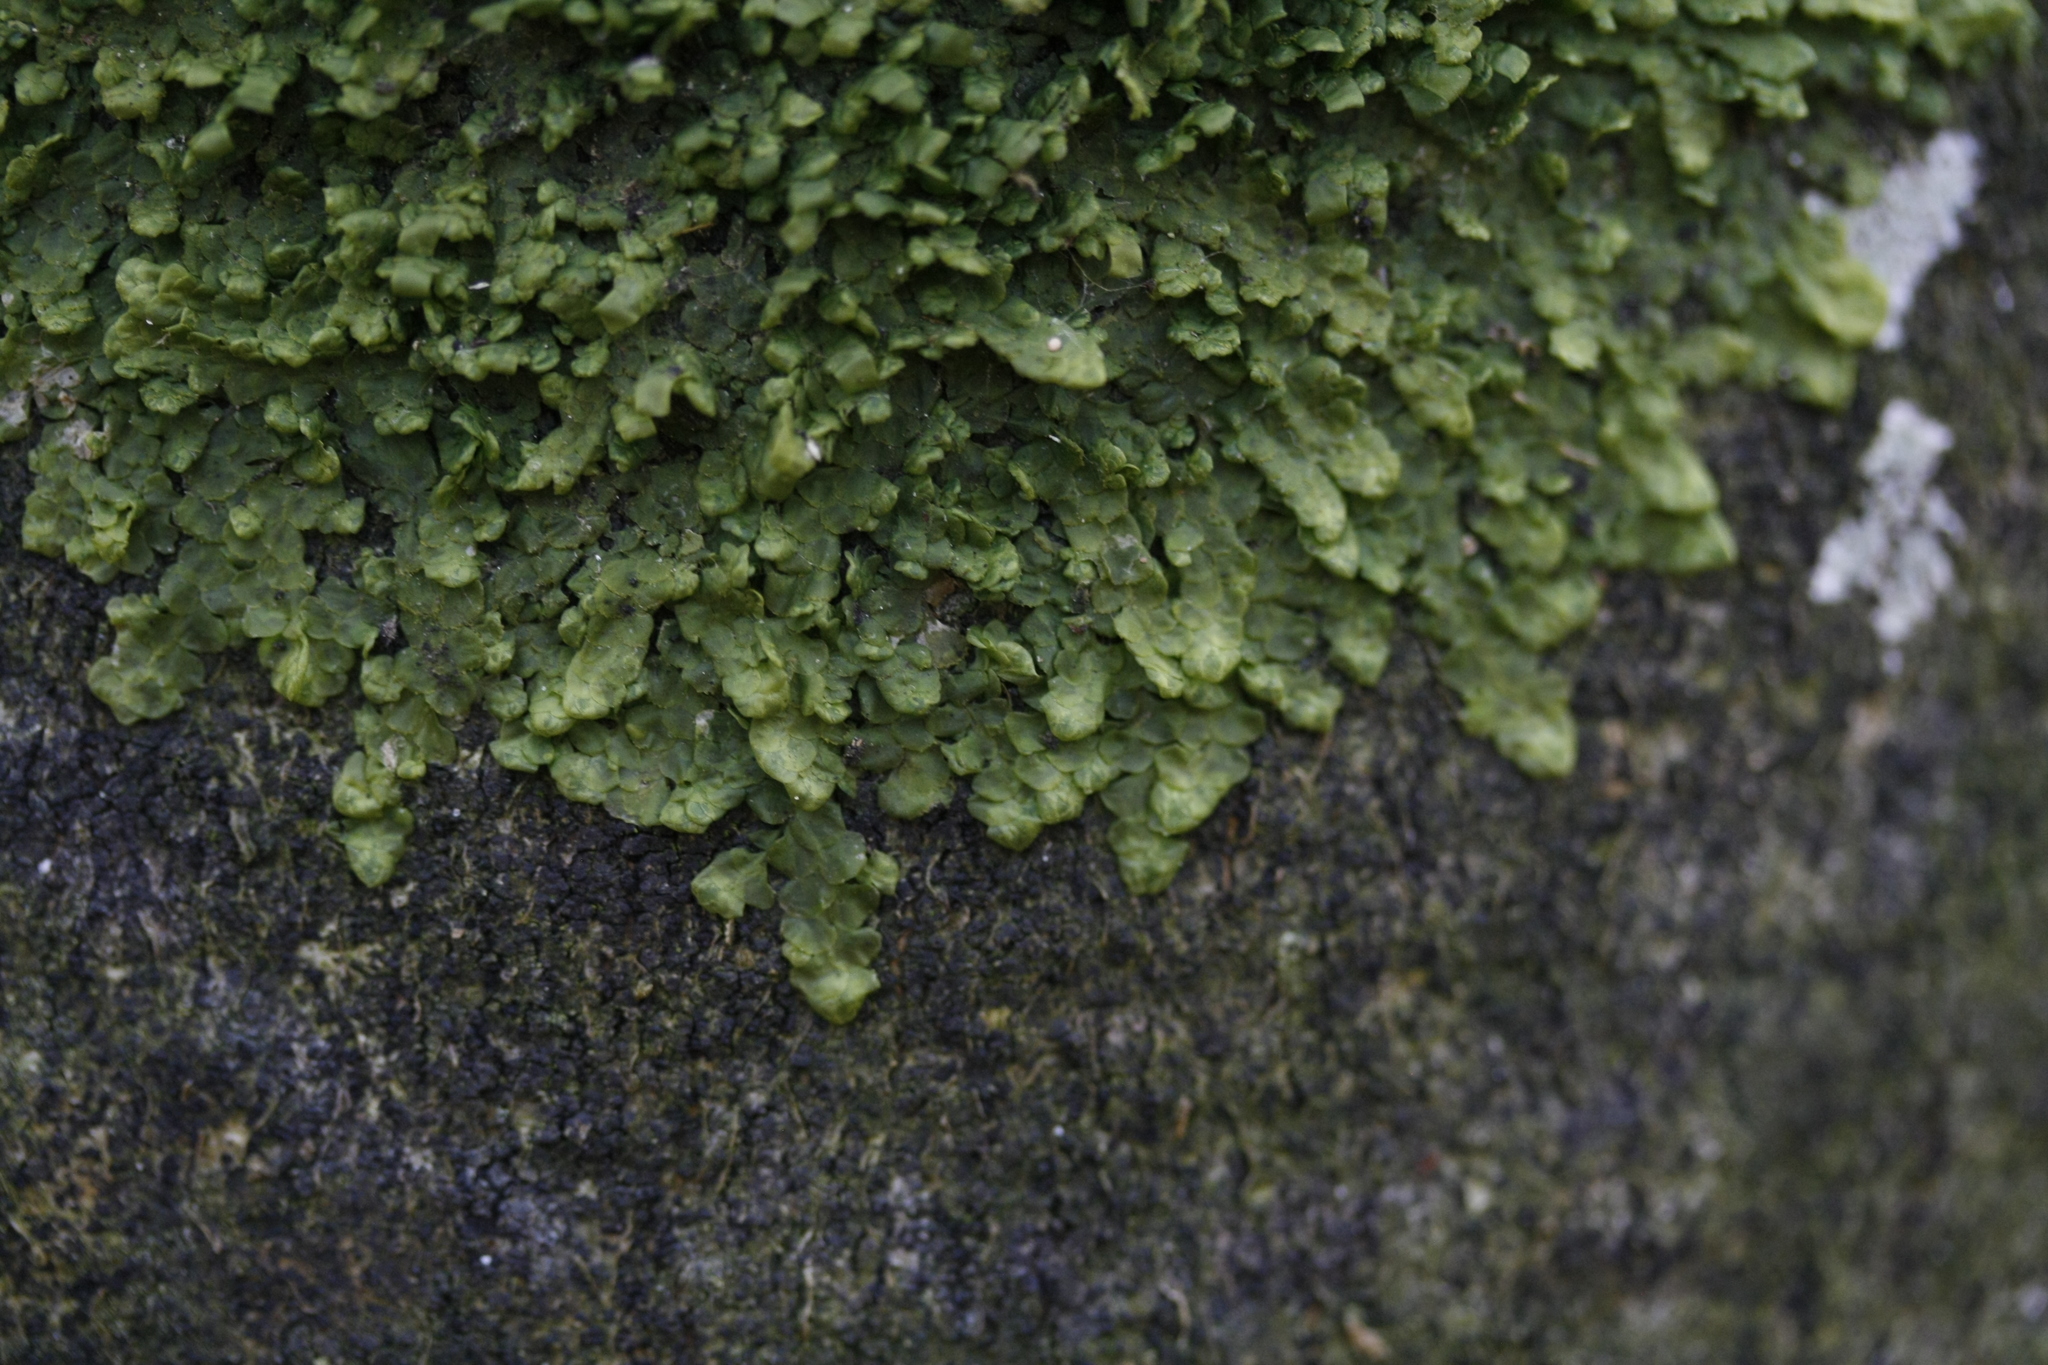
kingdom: Plantae
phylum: Marchantiophyta
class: Jungermanniopsida
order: Porellales
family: Radulaceae
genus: Radula
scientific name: Radula complanata
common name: Flat-leaved scalewort
